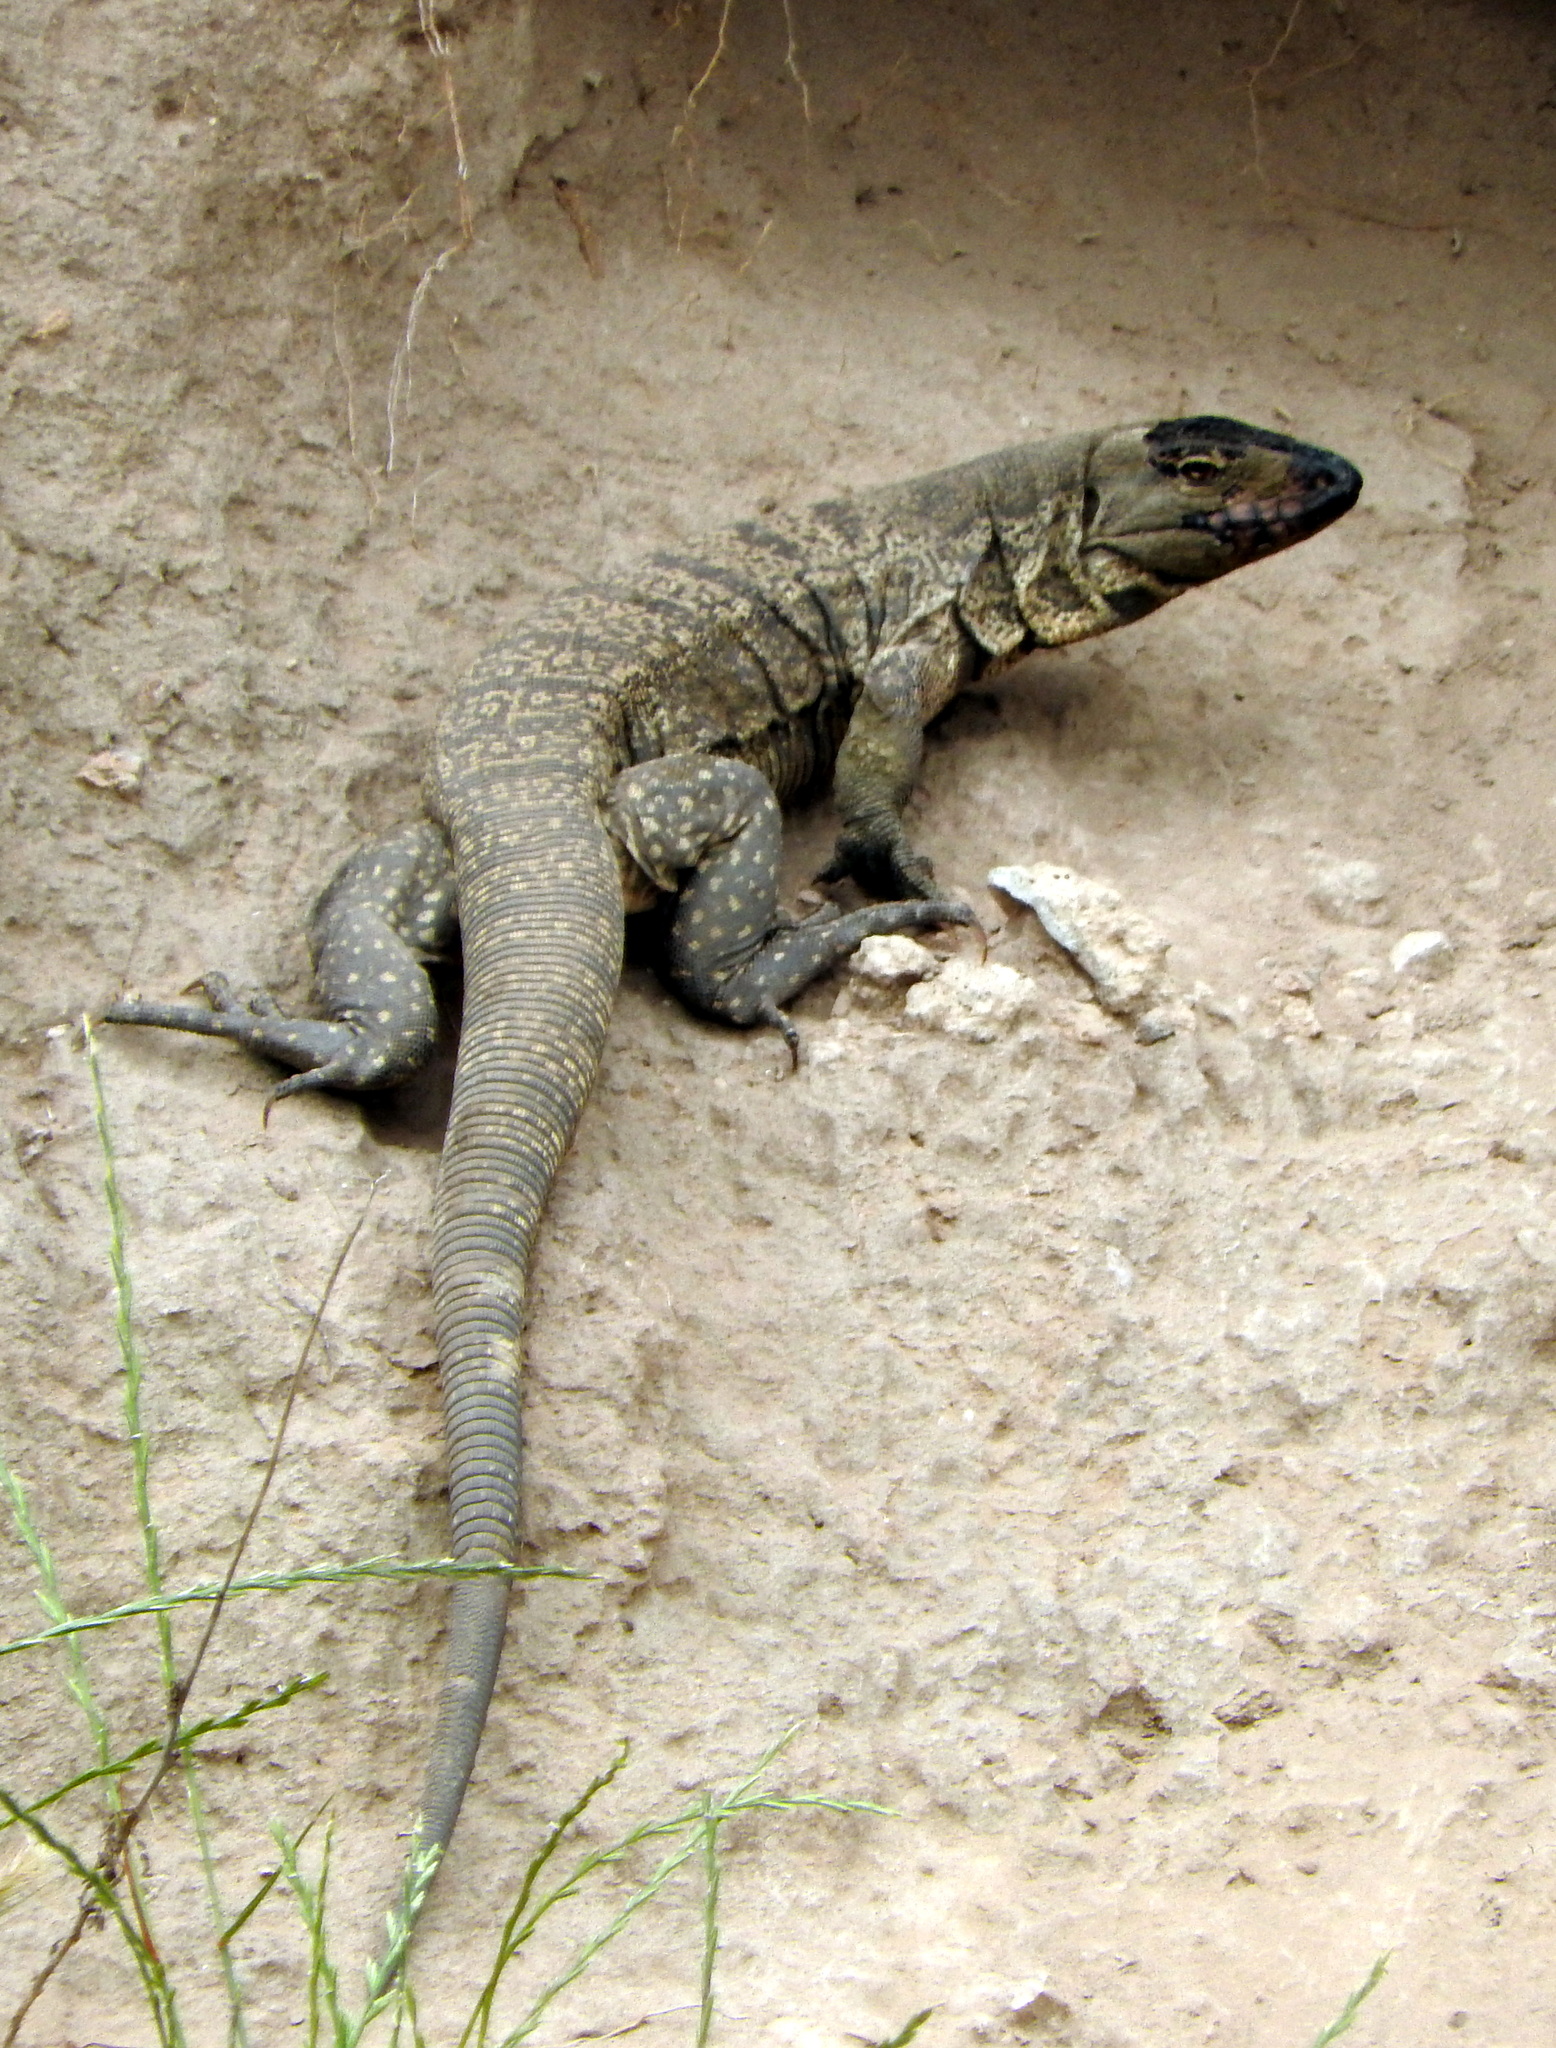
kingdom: Animalia
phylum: Chordata
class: Squamata
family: Teiidae
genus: Salvator
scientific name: Salvator merianae
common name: Argentine black and white tegu
